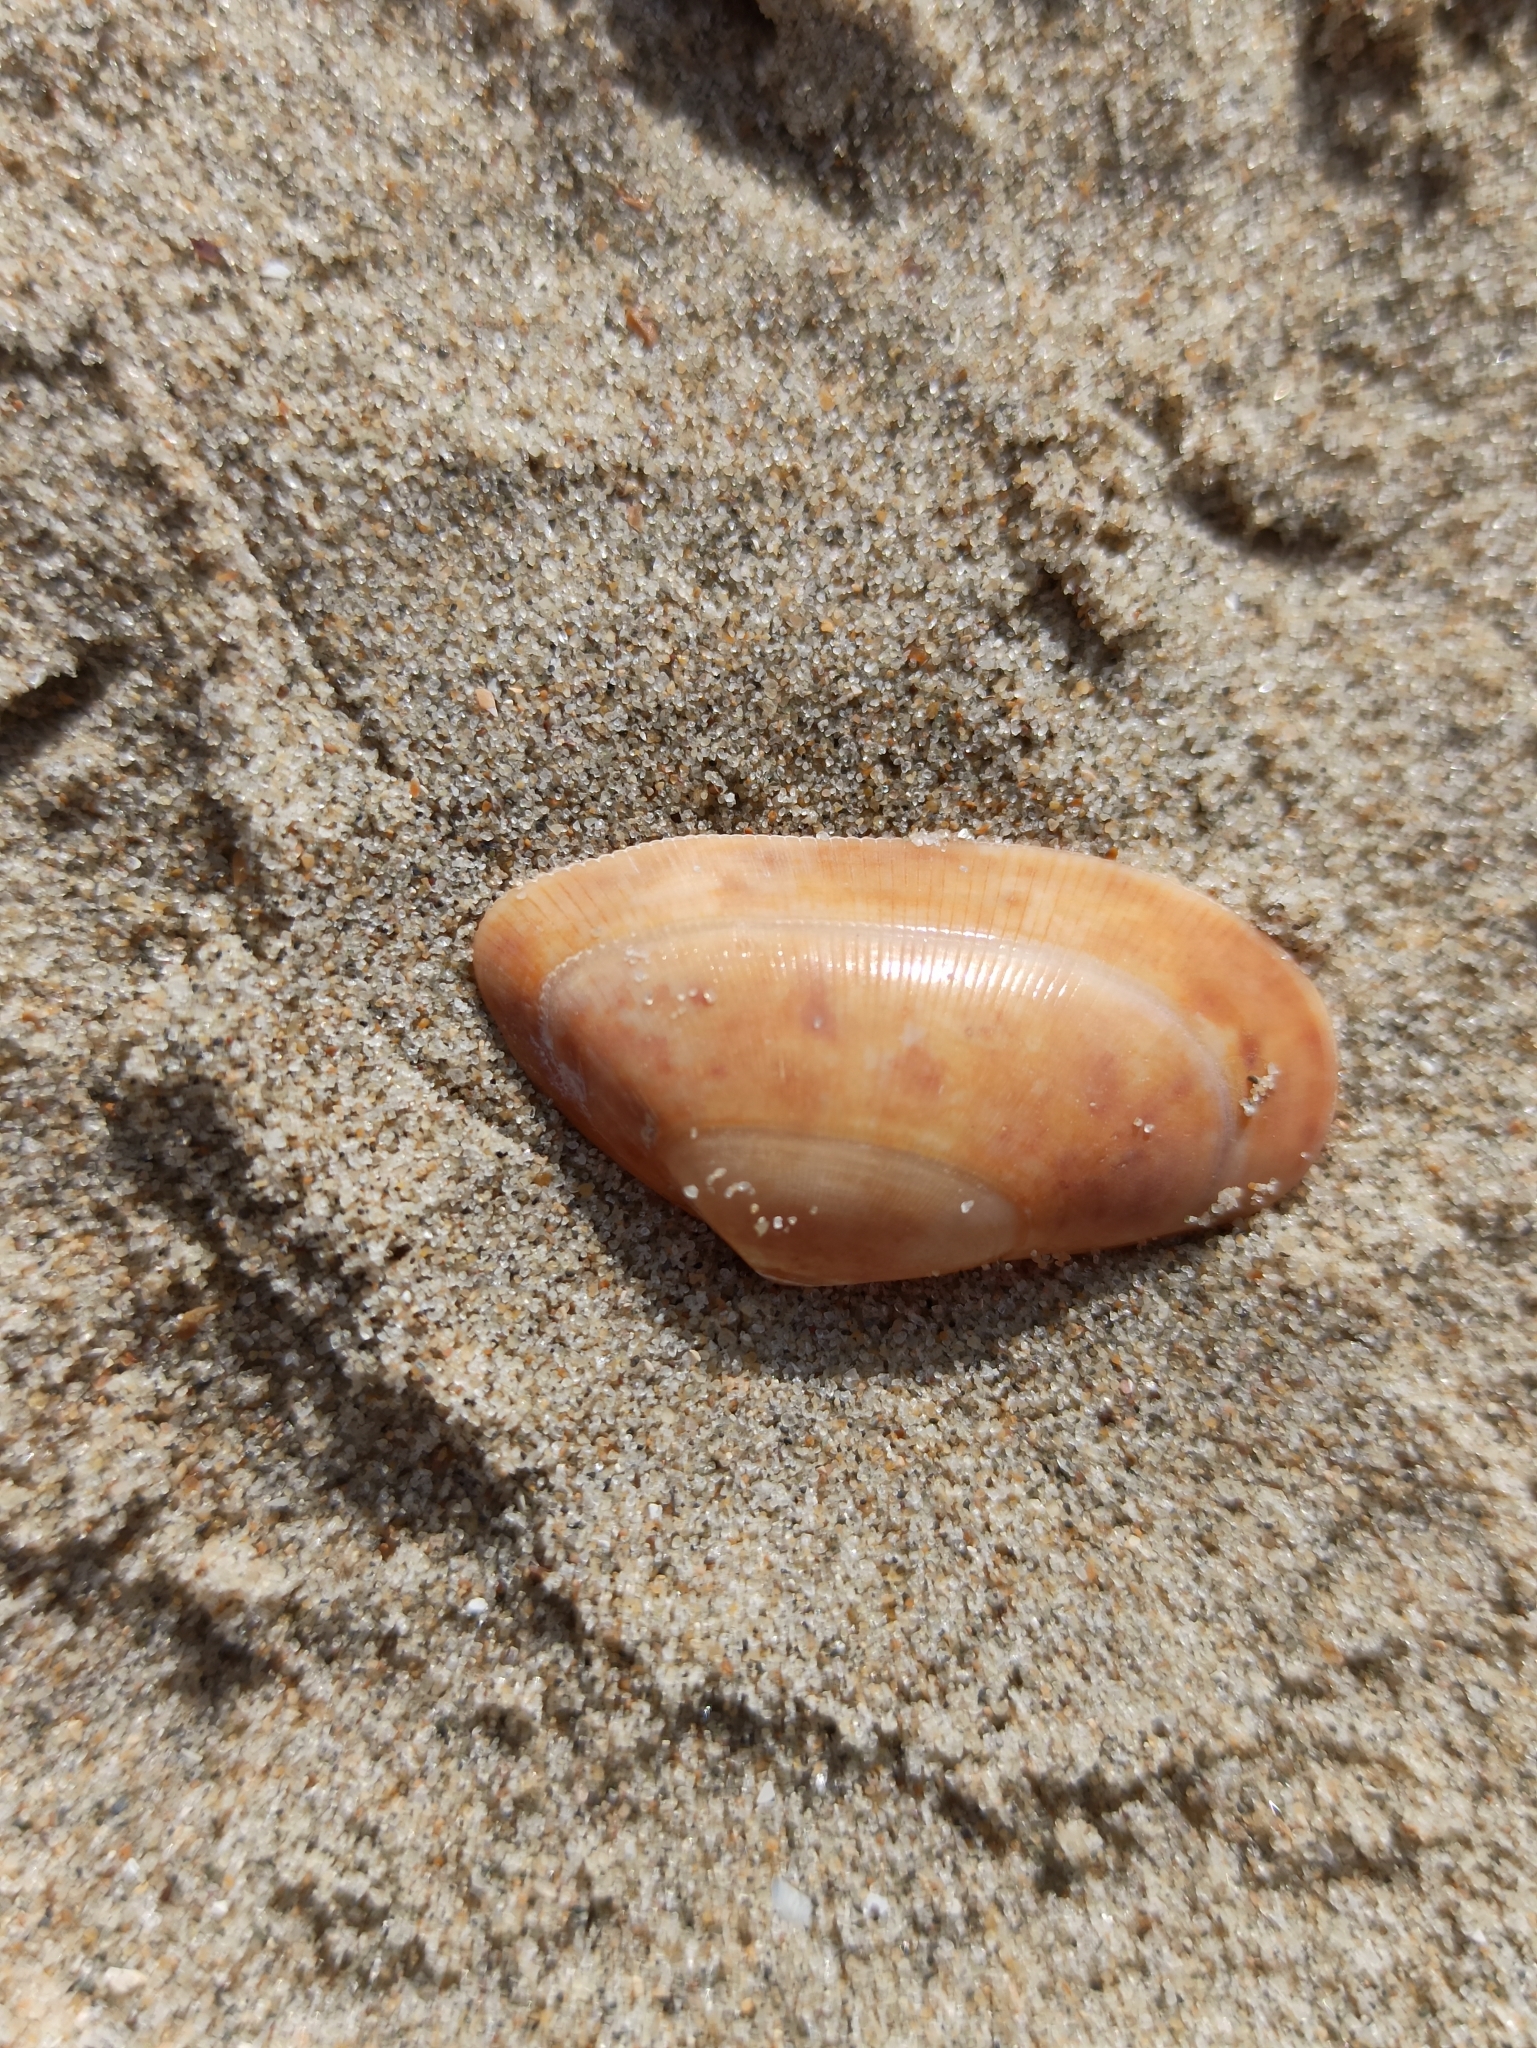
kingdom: Animalia
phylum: Mollusca
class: Bivalvia
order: Cardiida
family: Donacidae
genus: Donax
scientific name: Donax vittatus
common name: Banded wedge-shell
